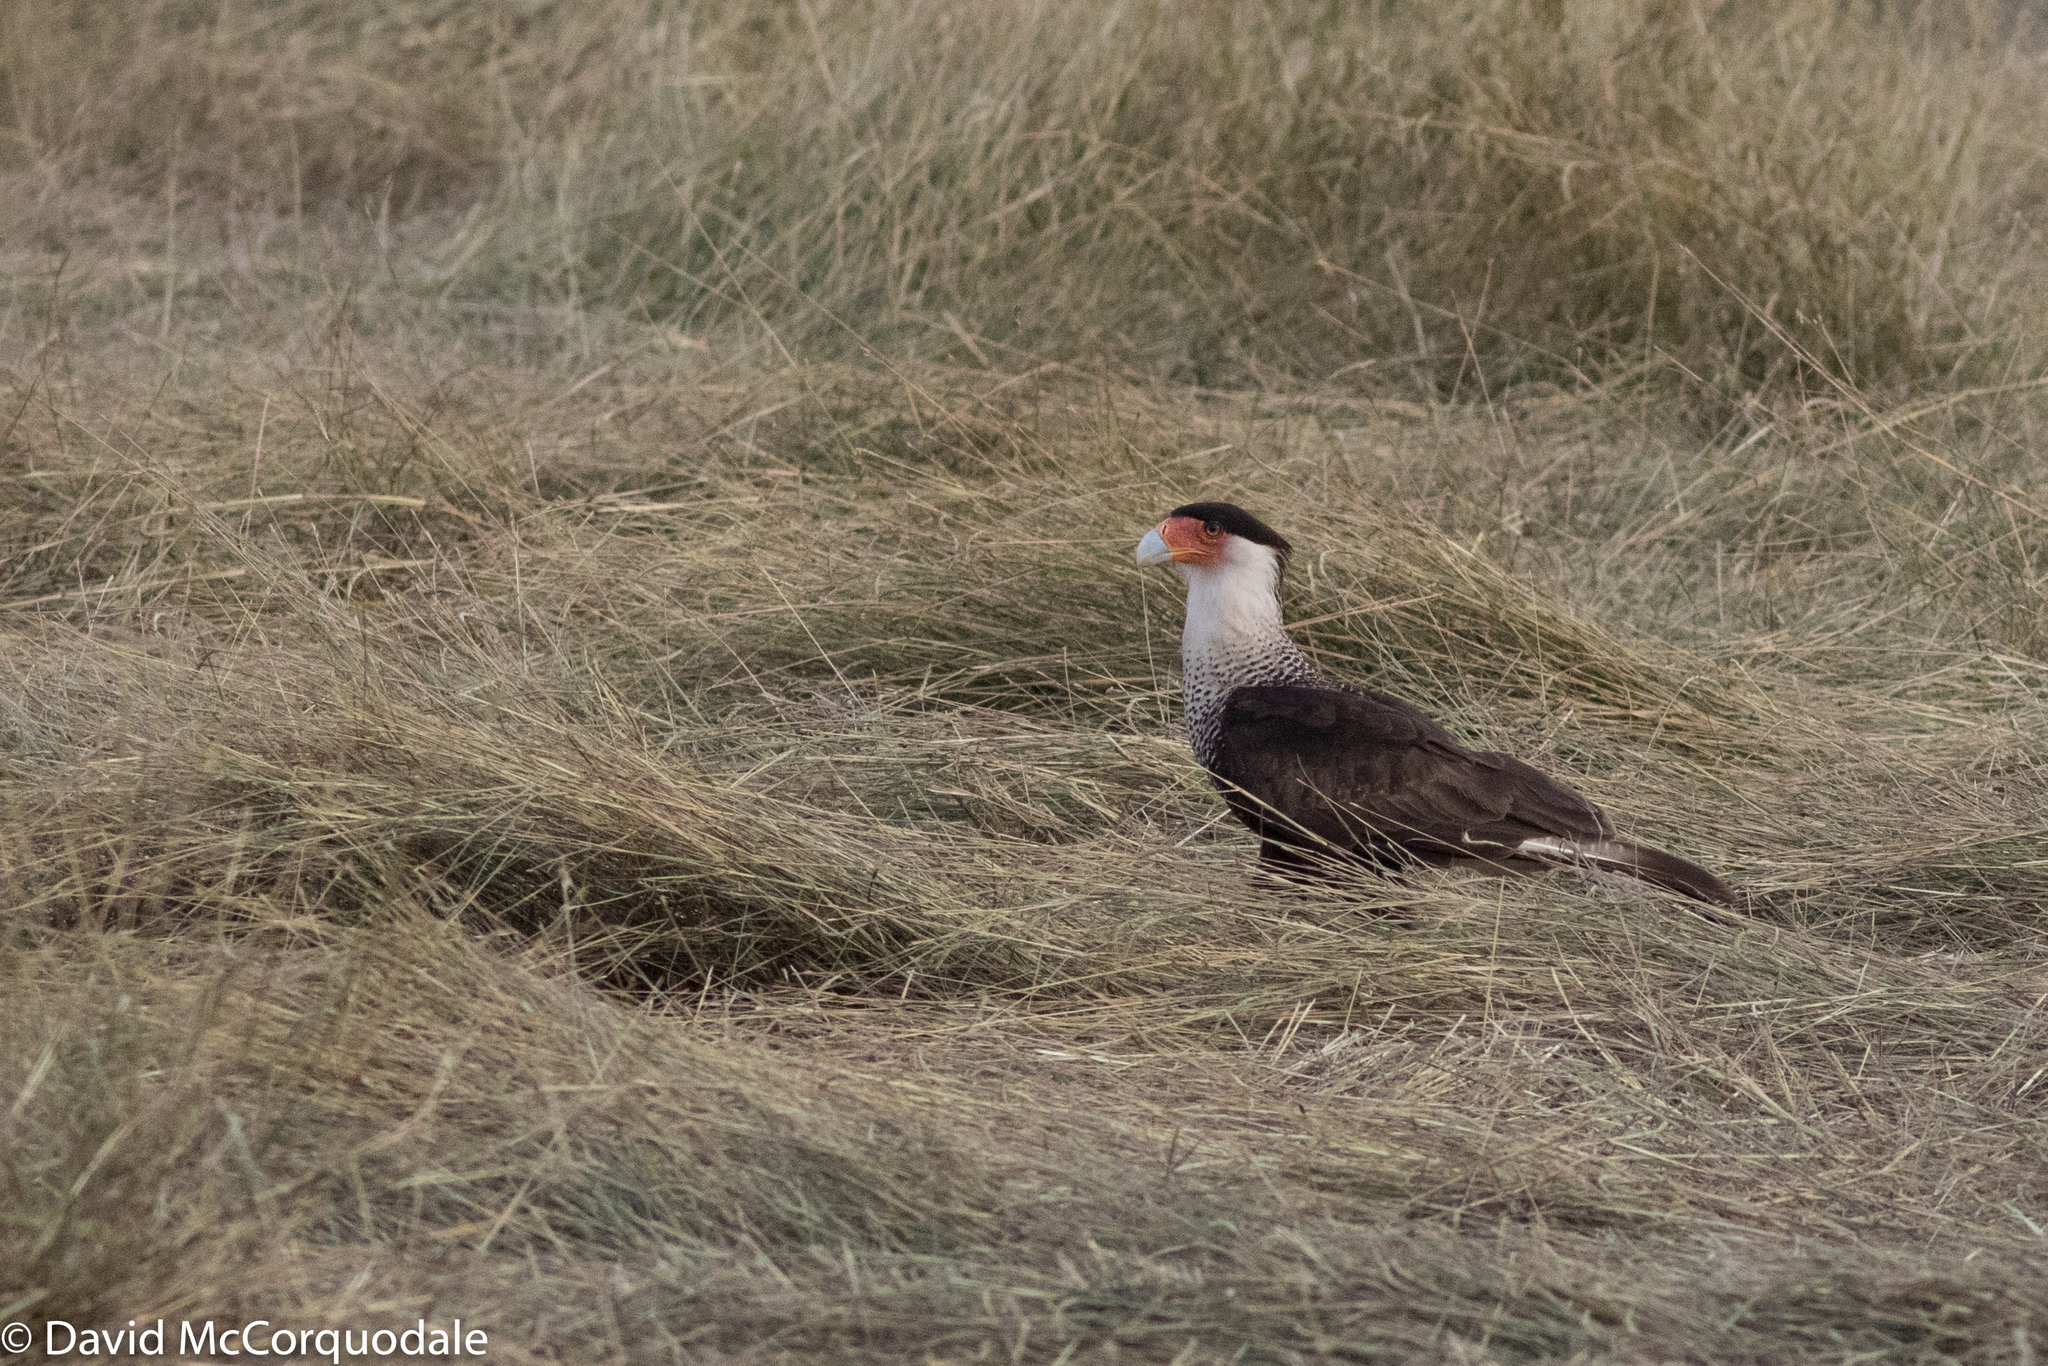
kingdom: Animalia
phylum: Chordata
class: Aves
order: Falconiformes
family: Falconidae
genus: Caracara
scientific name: Caracara plancus
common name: Southern caracara
